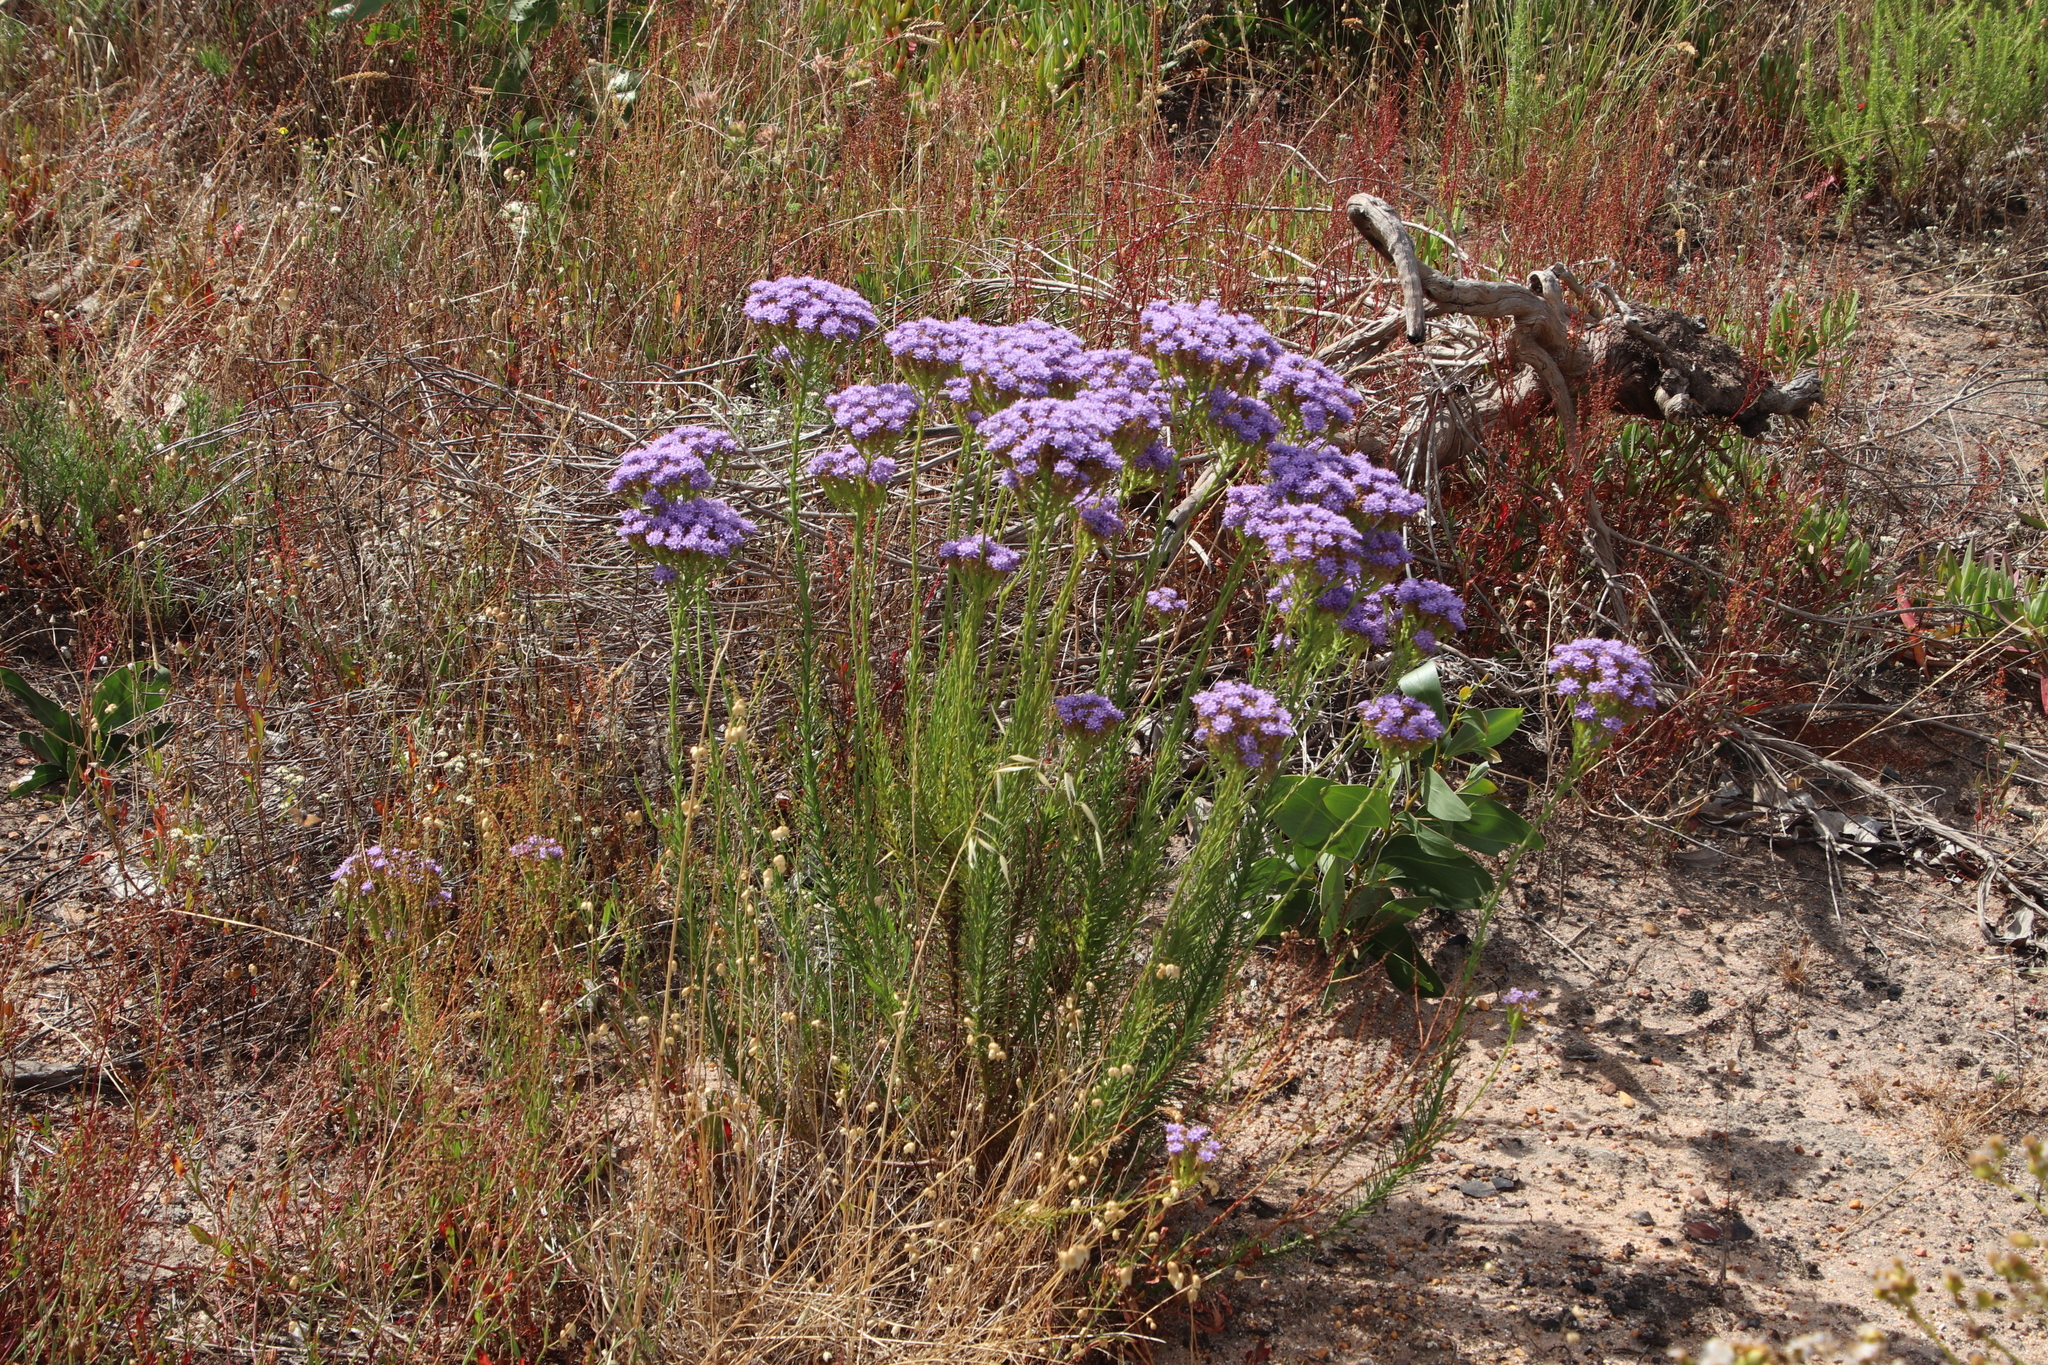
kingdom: Plantae
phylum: Tracheophyta
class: Magnoliopsida
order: Lamiales
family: Scrophulariaceae
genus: Pseudoselago
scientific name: Pseudoselago spuria
